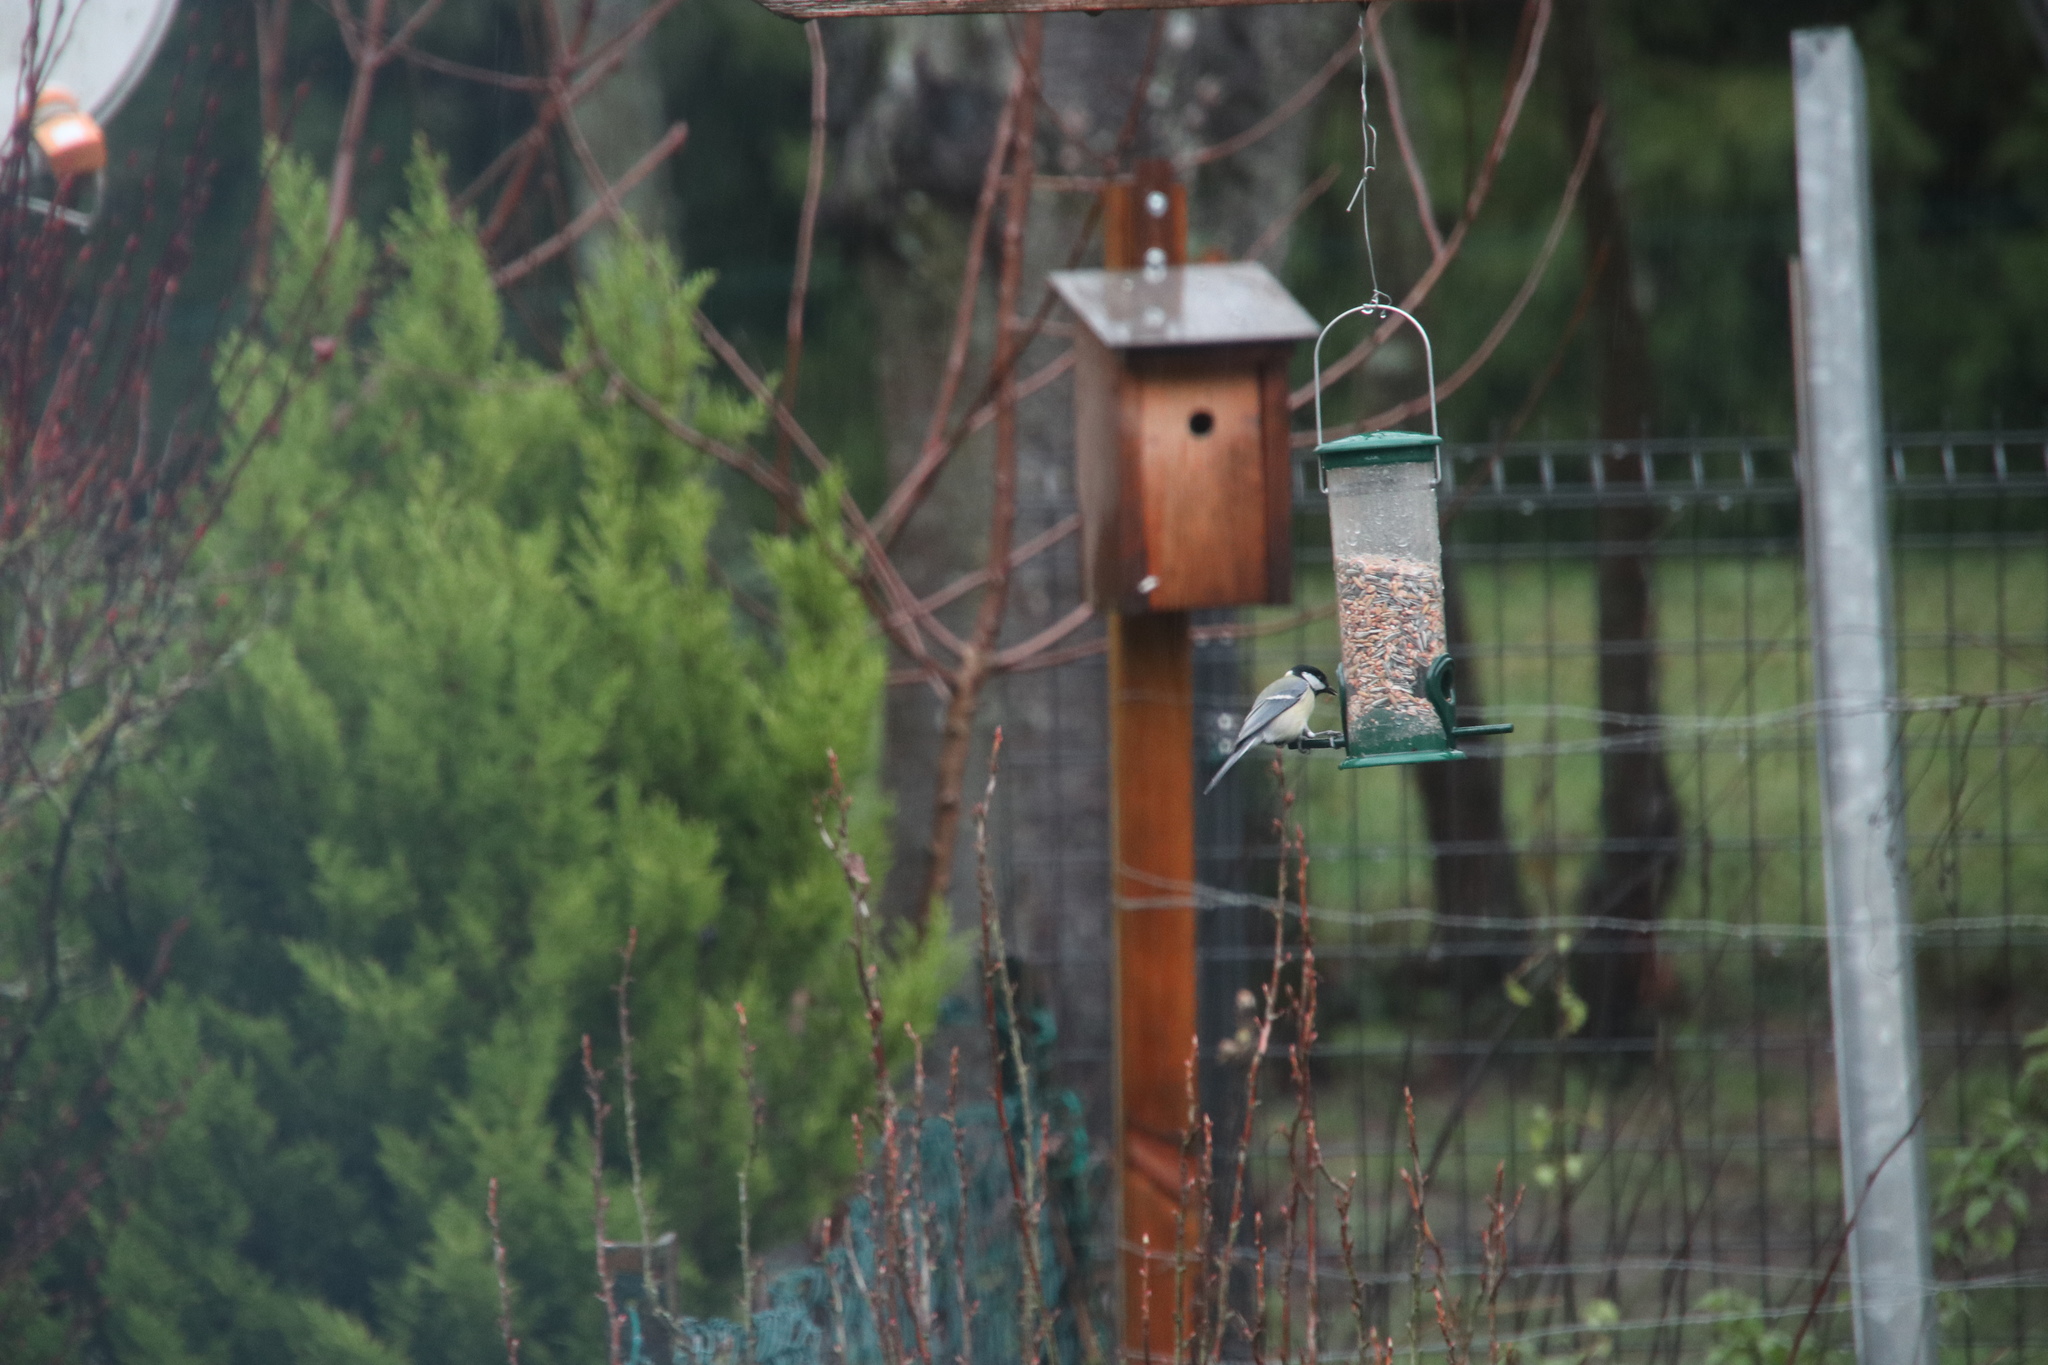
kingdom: Animalia
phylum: Chordata
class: Aves
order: Passeriformes
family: Paridae
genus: Parus
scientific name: Parus major
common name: Great tit
